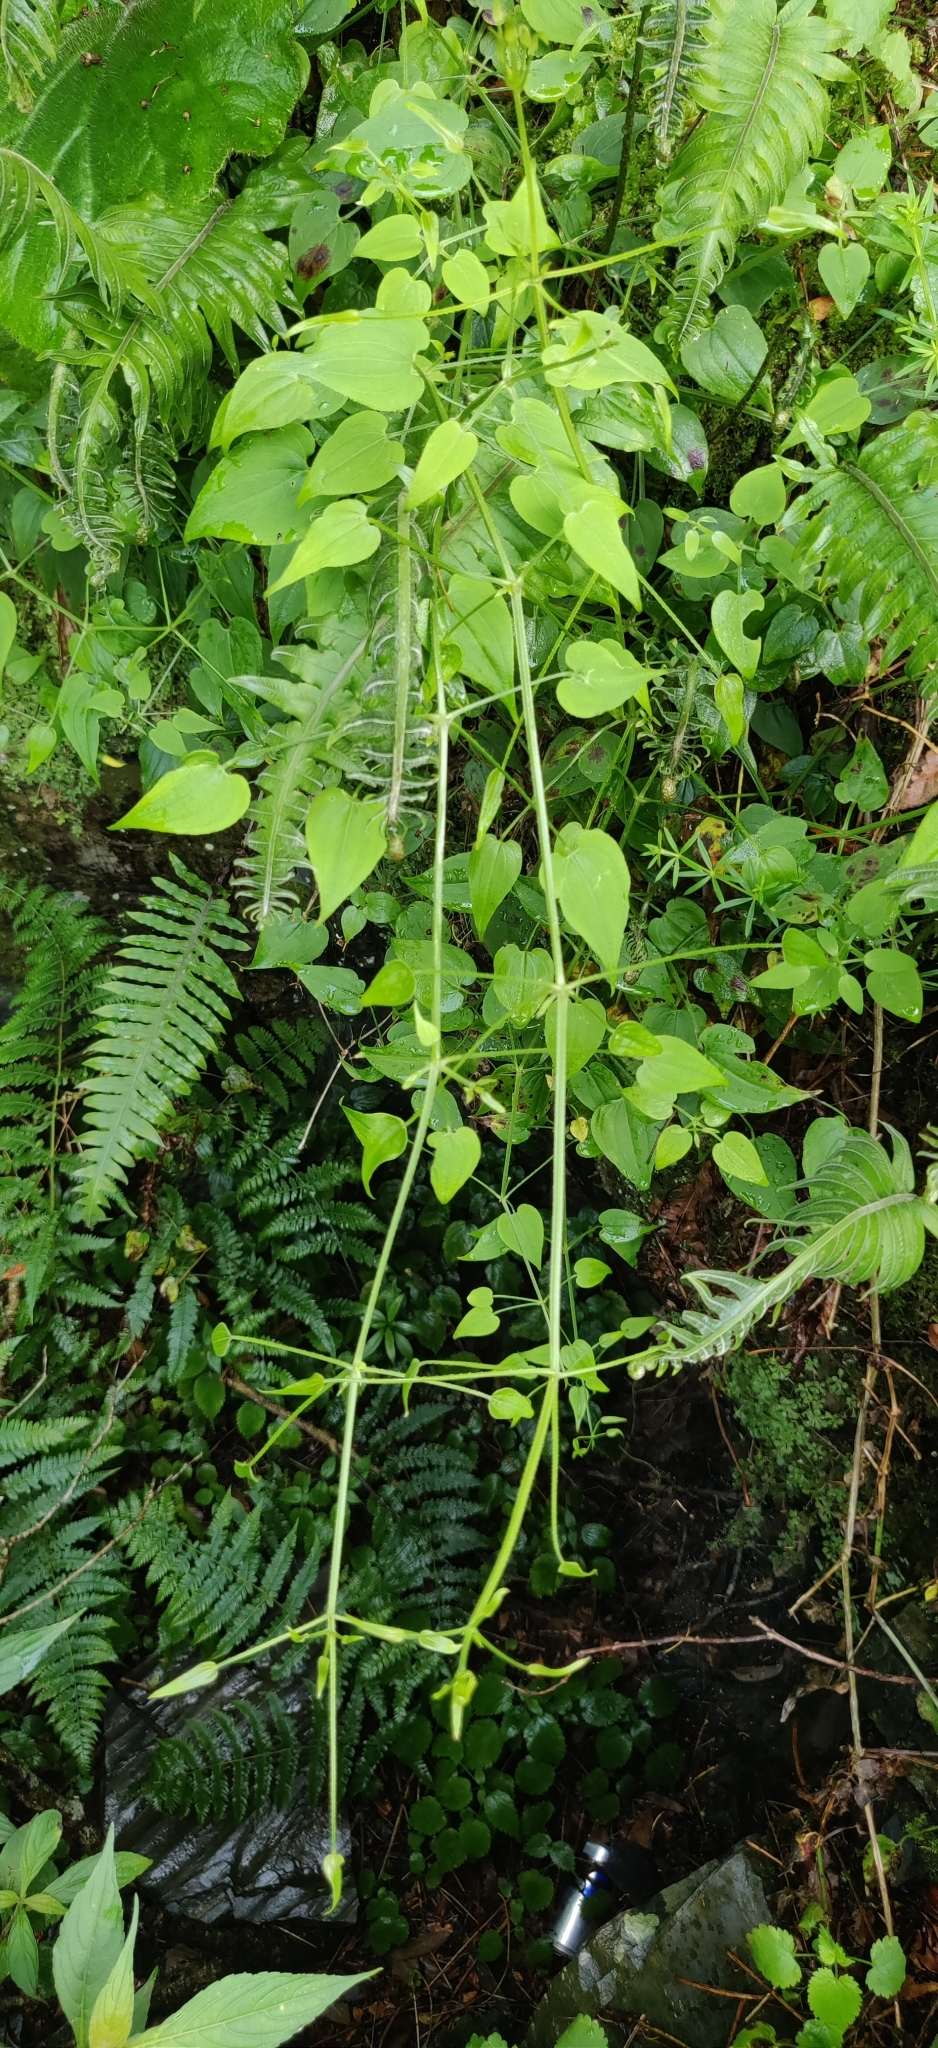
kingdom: Plantae
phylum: Tracheophyta
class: Magnoliopsida
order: Gentianales
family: Rubiaceae
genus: Rubia
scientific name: Rubia cordifolia
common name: Indian madder
